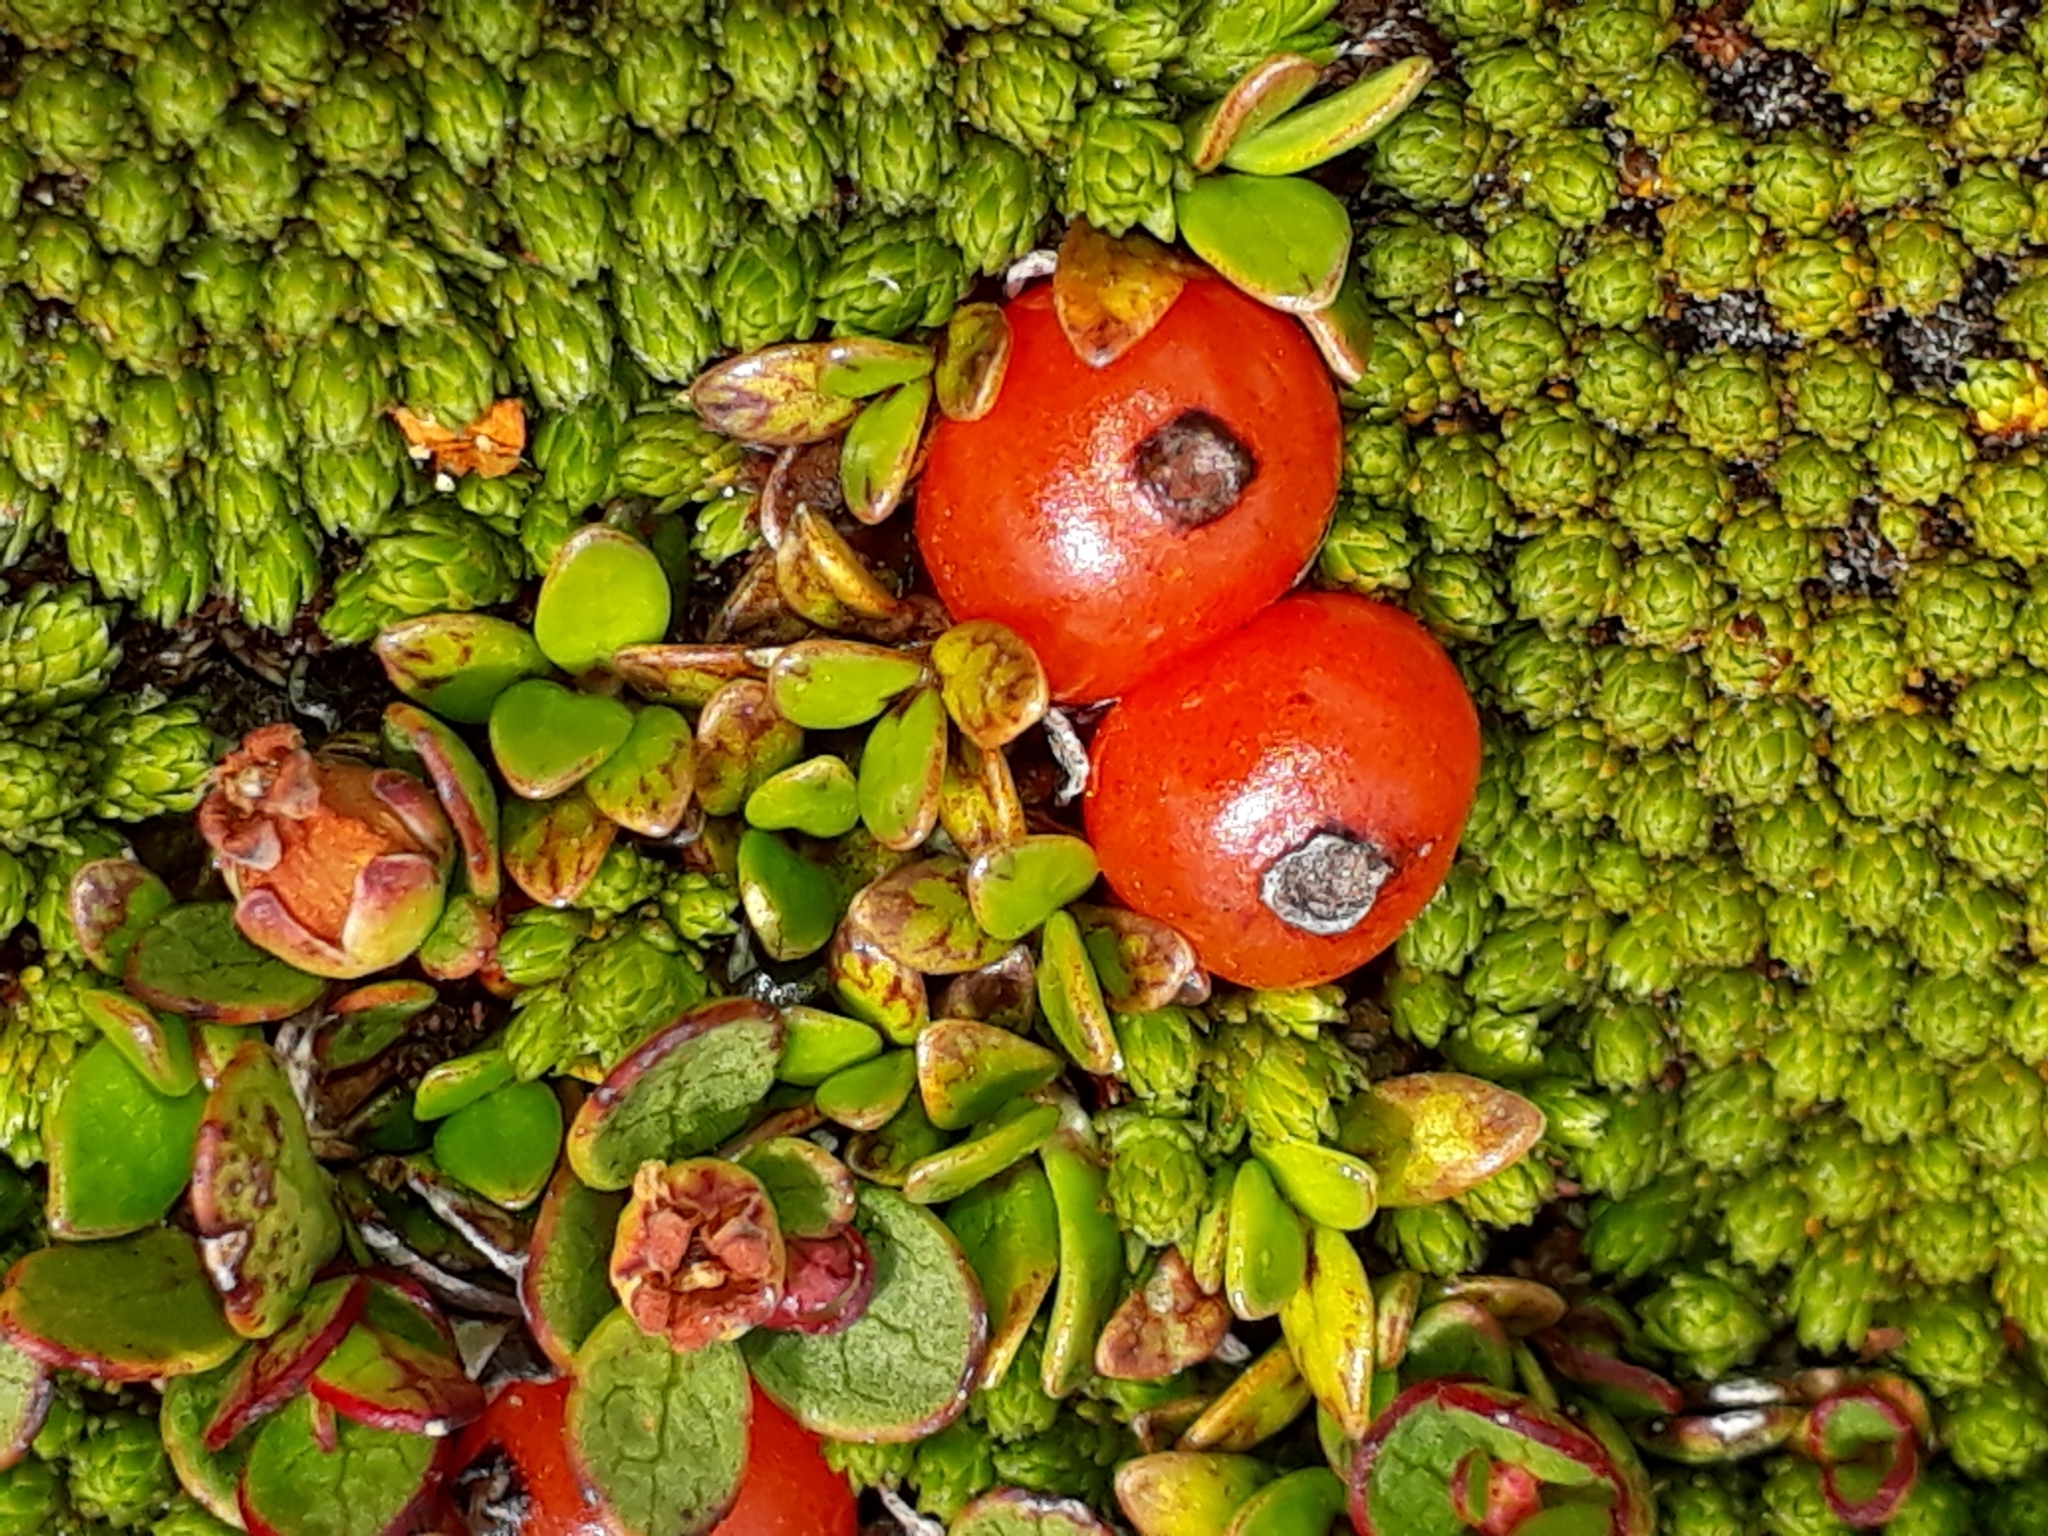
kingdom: Plantae
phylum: Tracheophyta
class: Magnoliopsida
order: Gentianales
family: Rubiaceae
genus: Coprosma
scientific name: Coprosma perpusilla
